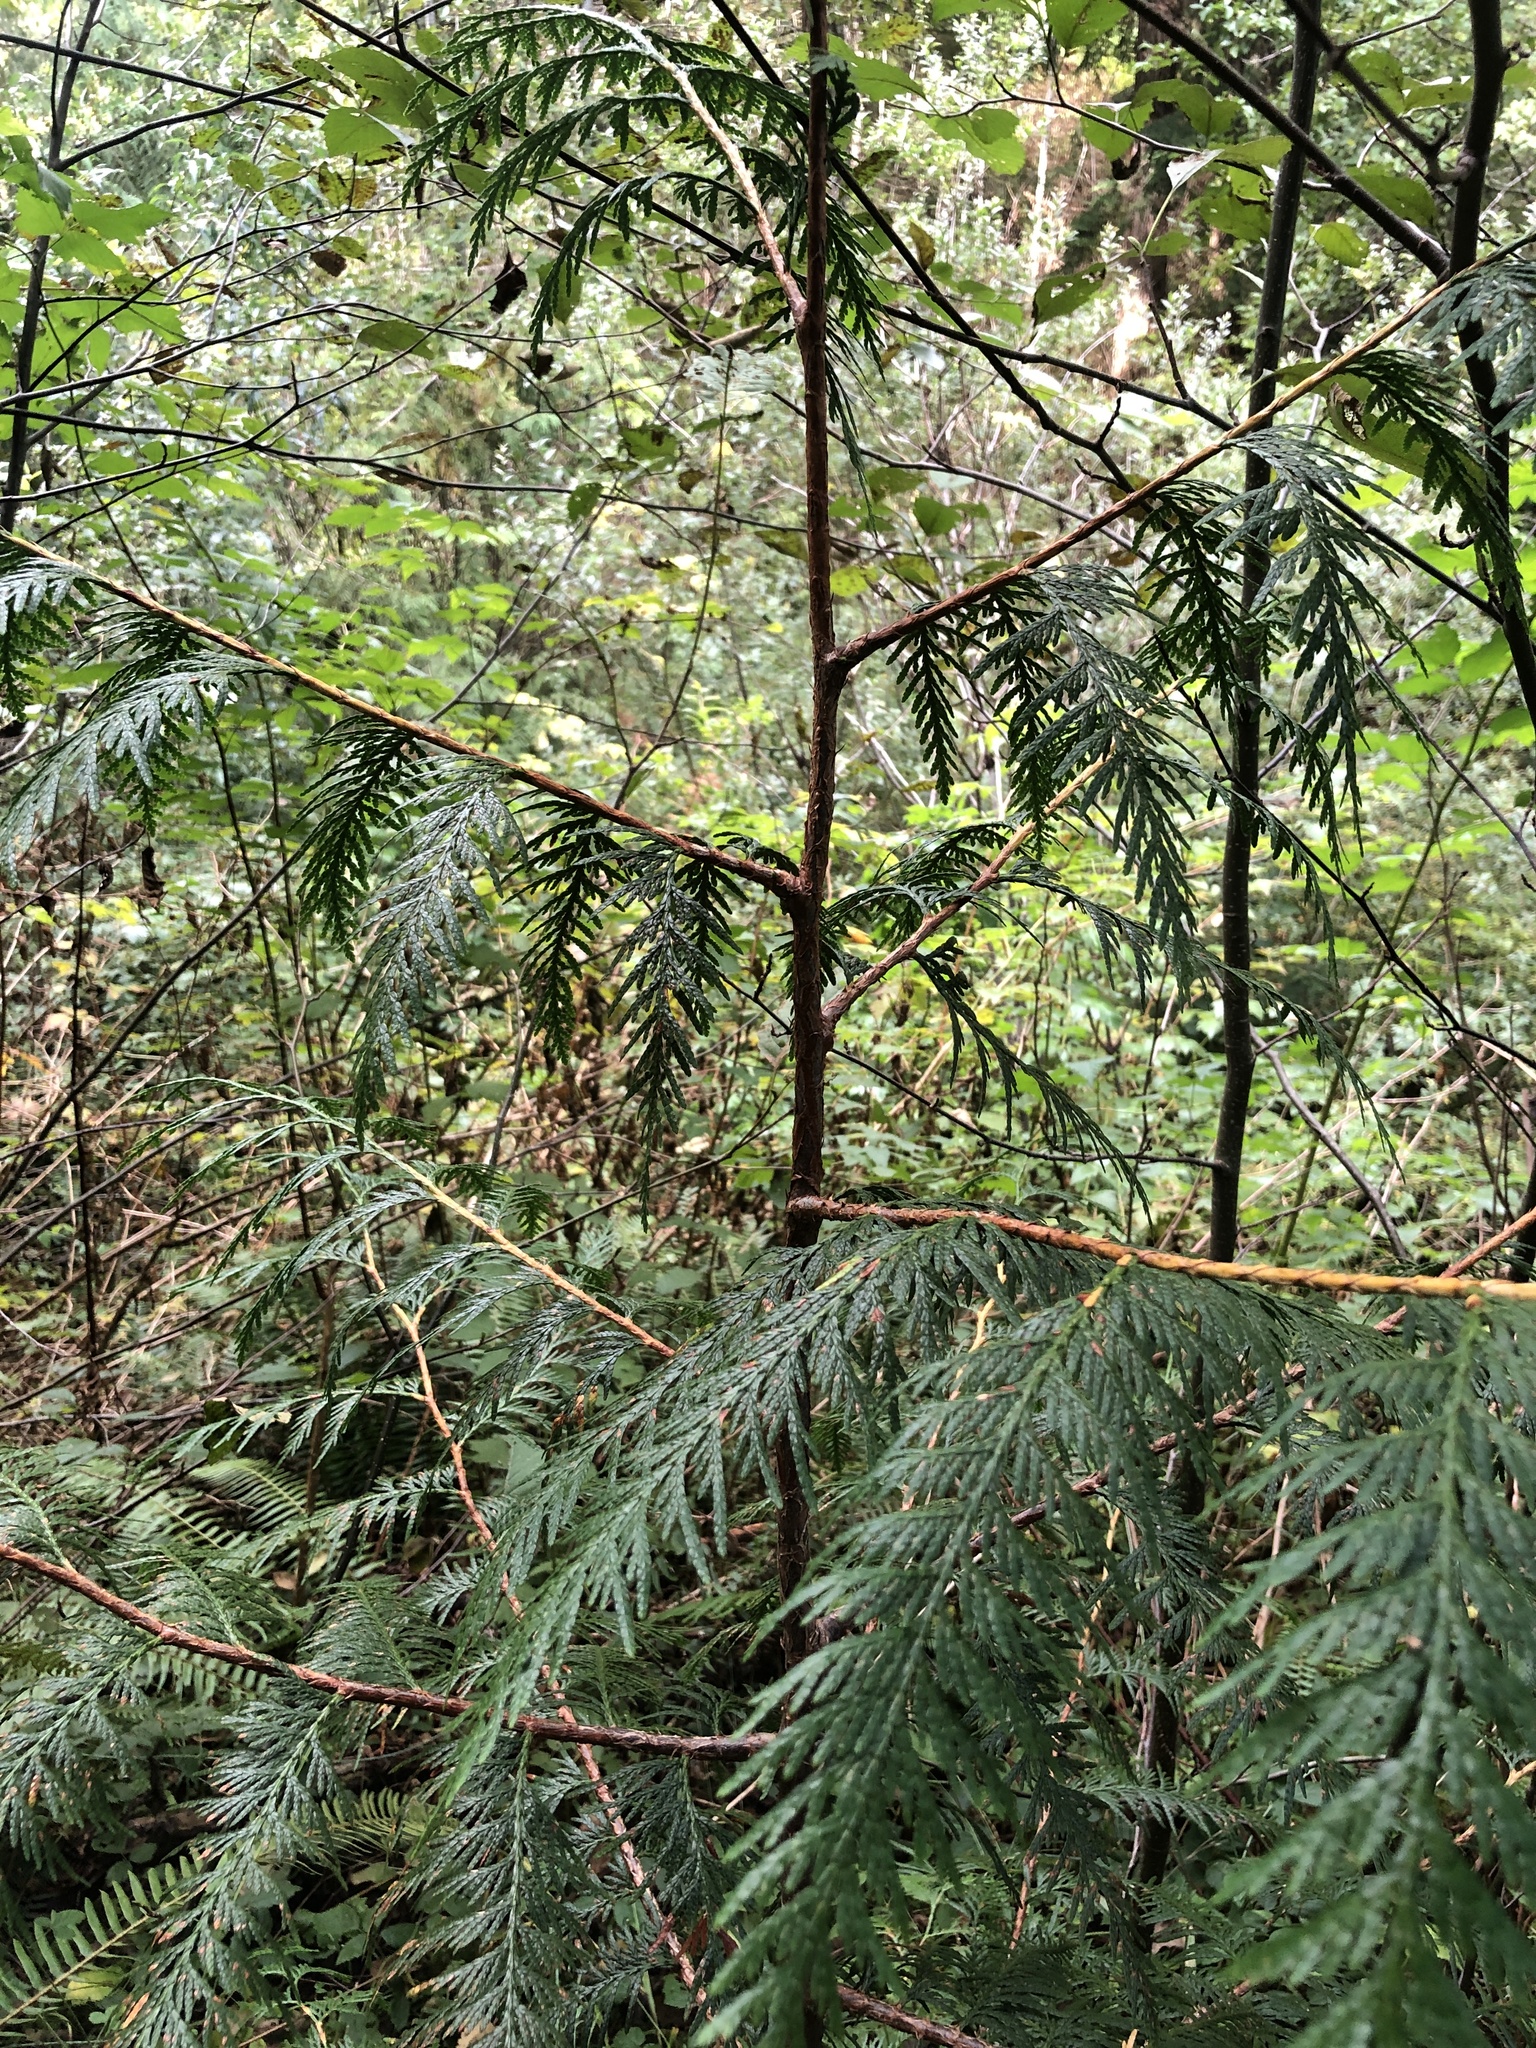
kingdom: Plantae
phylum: Tracheophyta
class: Pinopsida
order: Pinales
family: Cupressaceae
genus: Thuja
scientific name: Thuja plicata
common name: Western red-cedar
